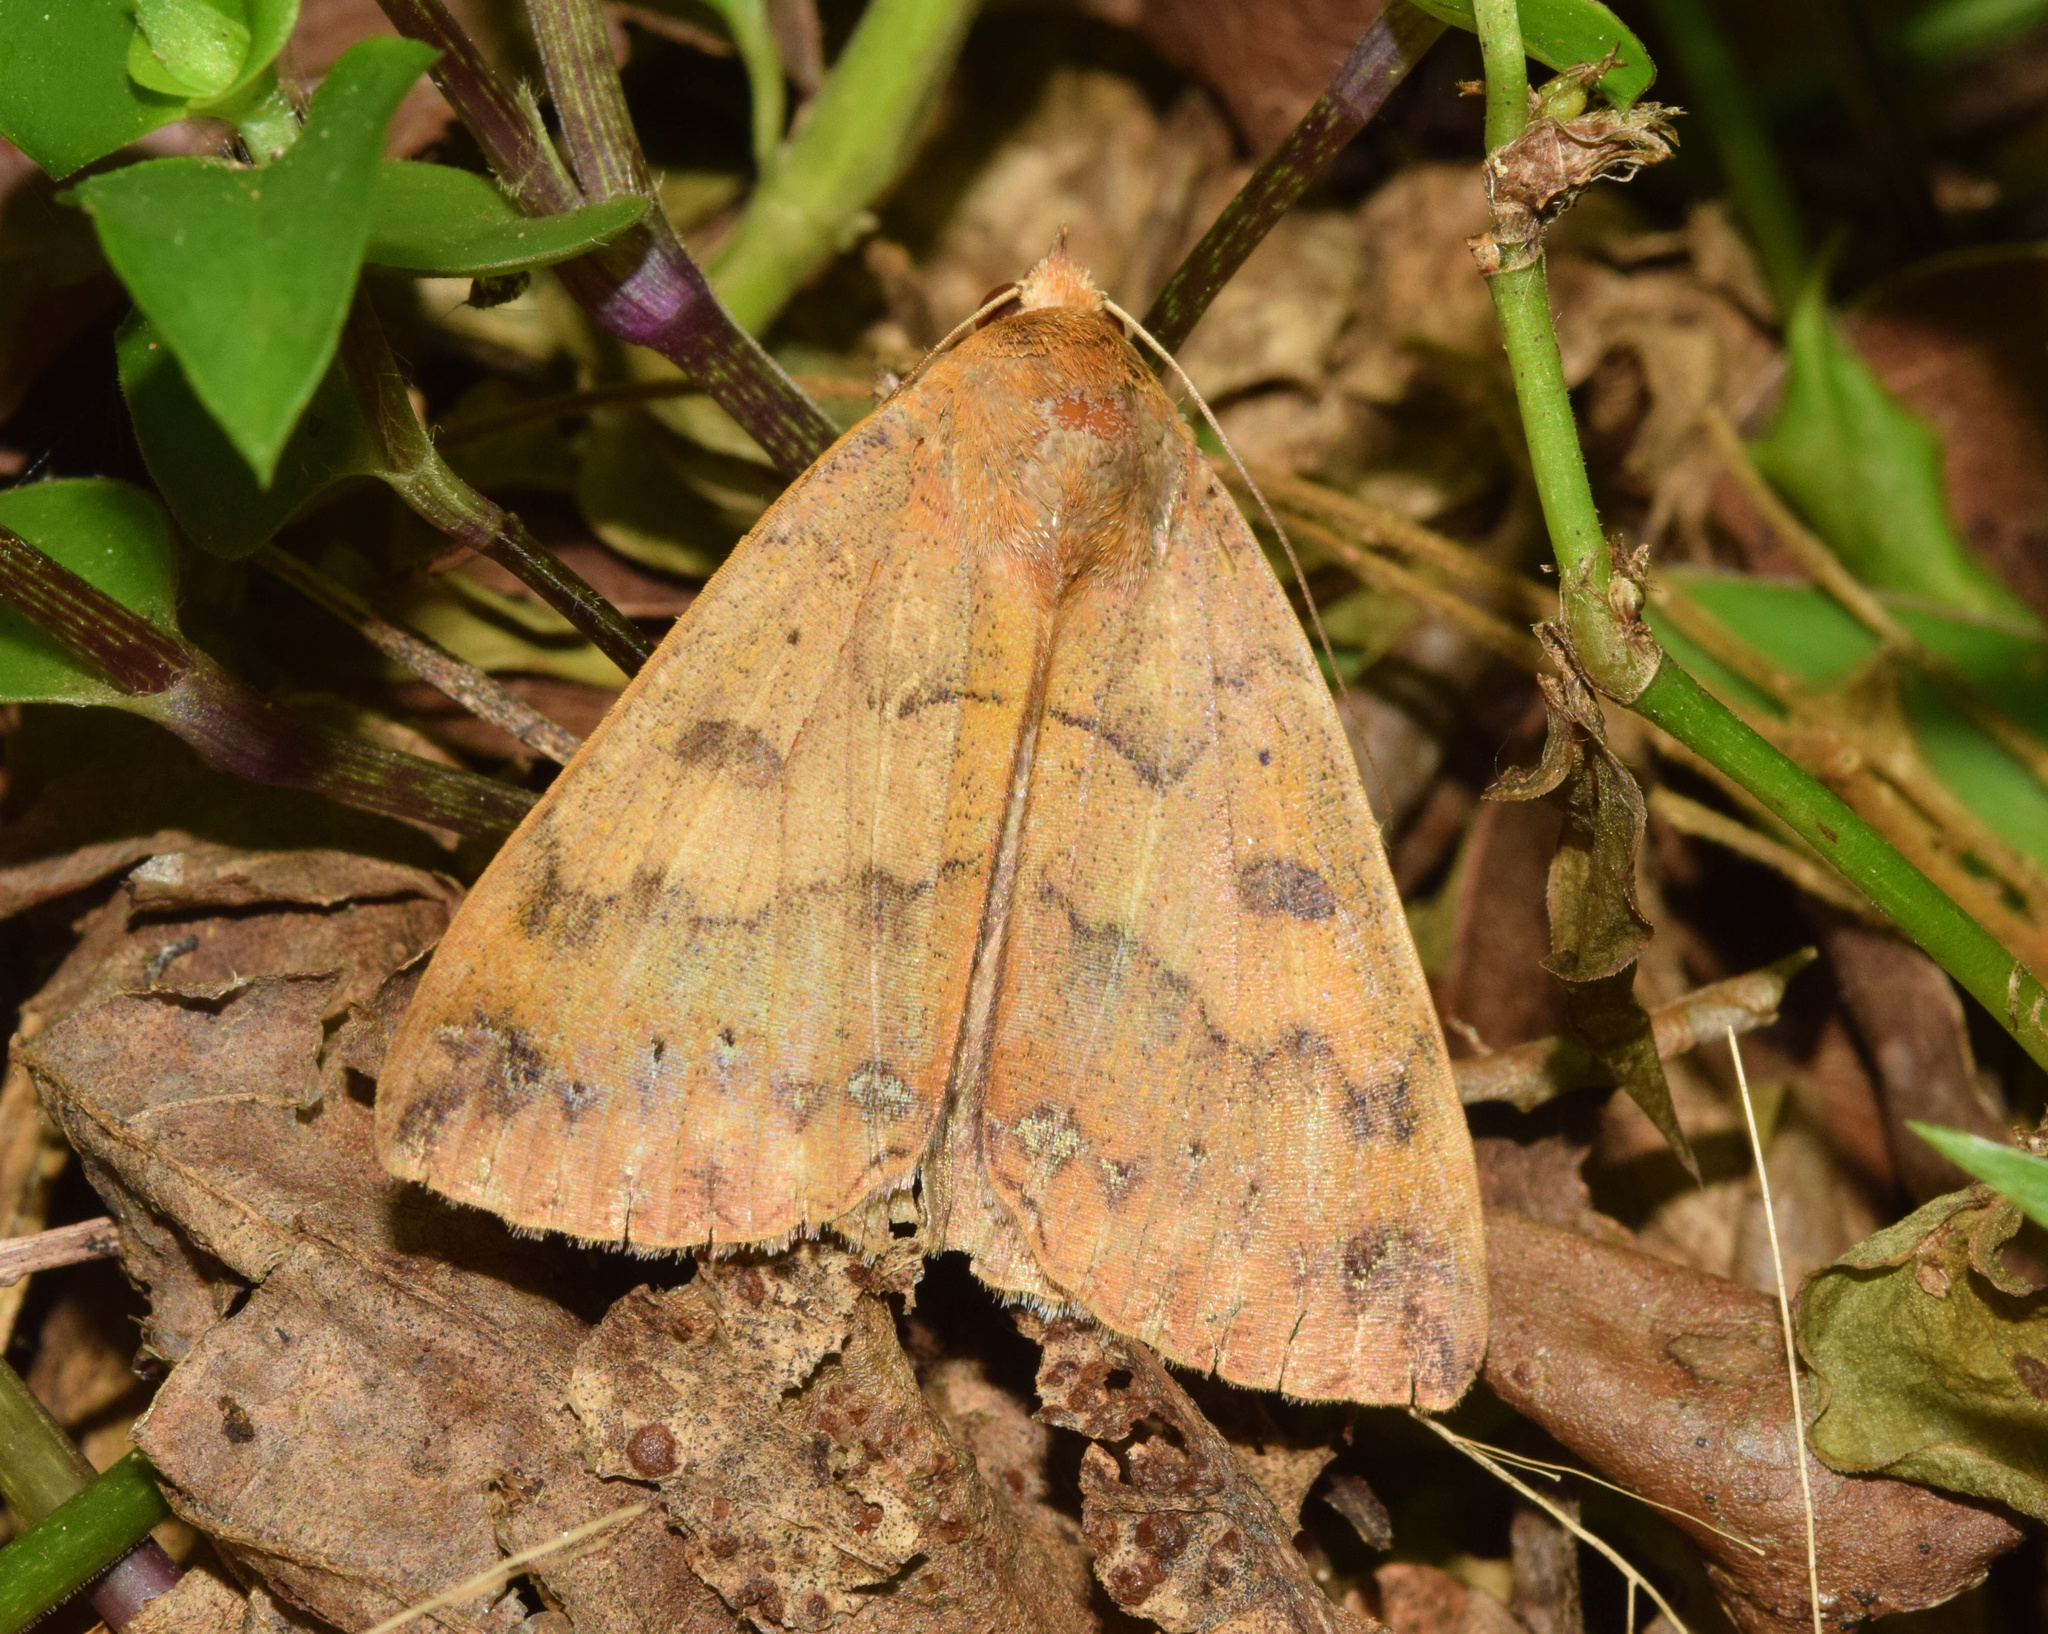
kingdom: Animalia
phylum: Arthropoda
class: Insecta
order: Lepidoptera
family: Erebidae
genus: Ophiusa
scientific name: Ophiusa tumiditermina
